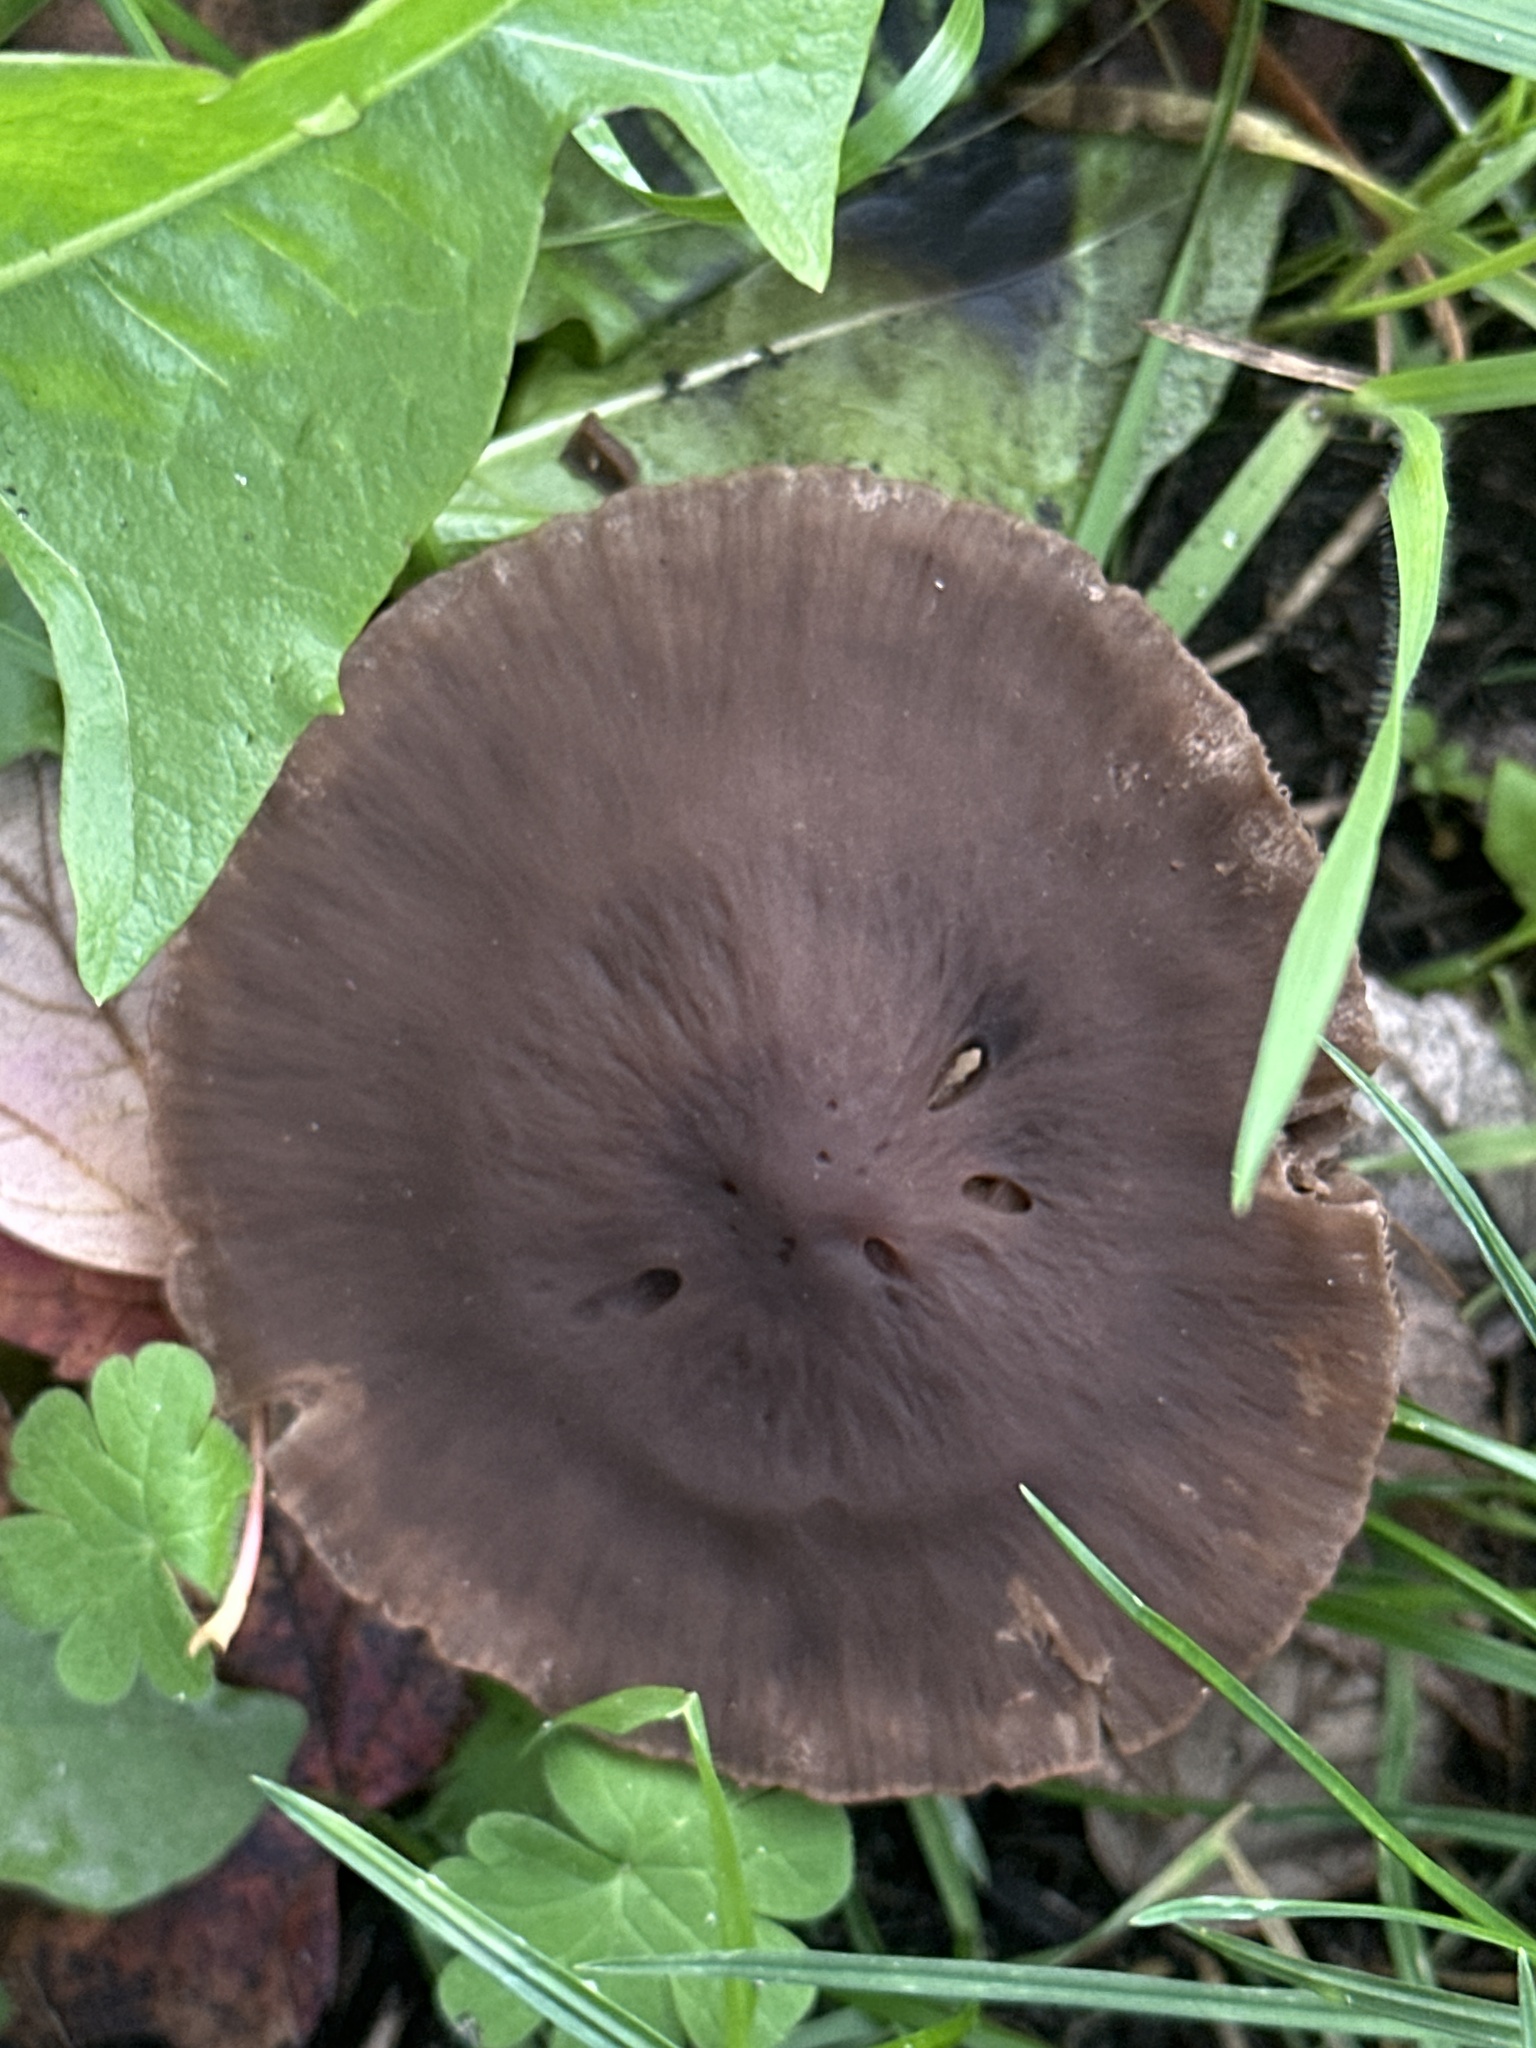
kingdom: Fungi
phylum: Basidiomycota
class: Agaricomycetes
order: Agaricales
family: Bolbitiaceae
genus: Panaeolina
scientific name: Panaeolina foenisecii
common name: Brown hay cap
